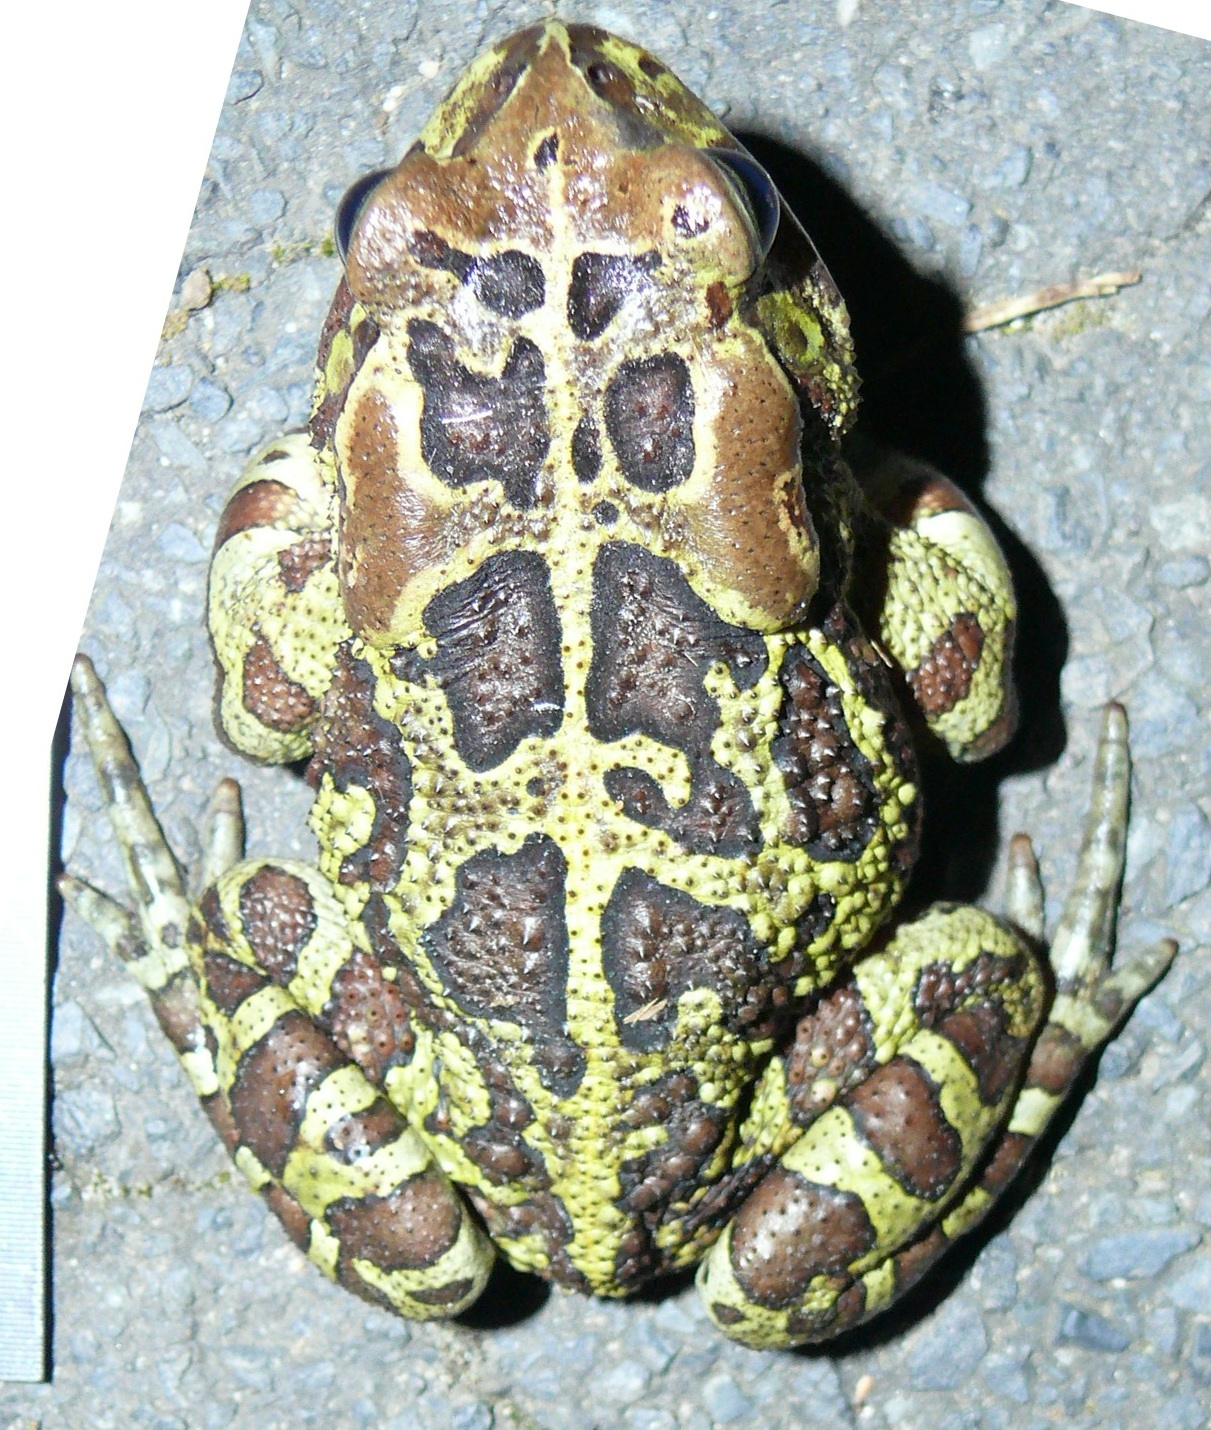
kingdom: Animalia
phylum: Chordata
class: Amphibia
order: Anura
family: Bufonidae
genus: Sclerophrys
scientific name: Sclerophrys pantherina
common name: Panther toad
